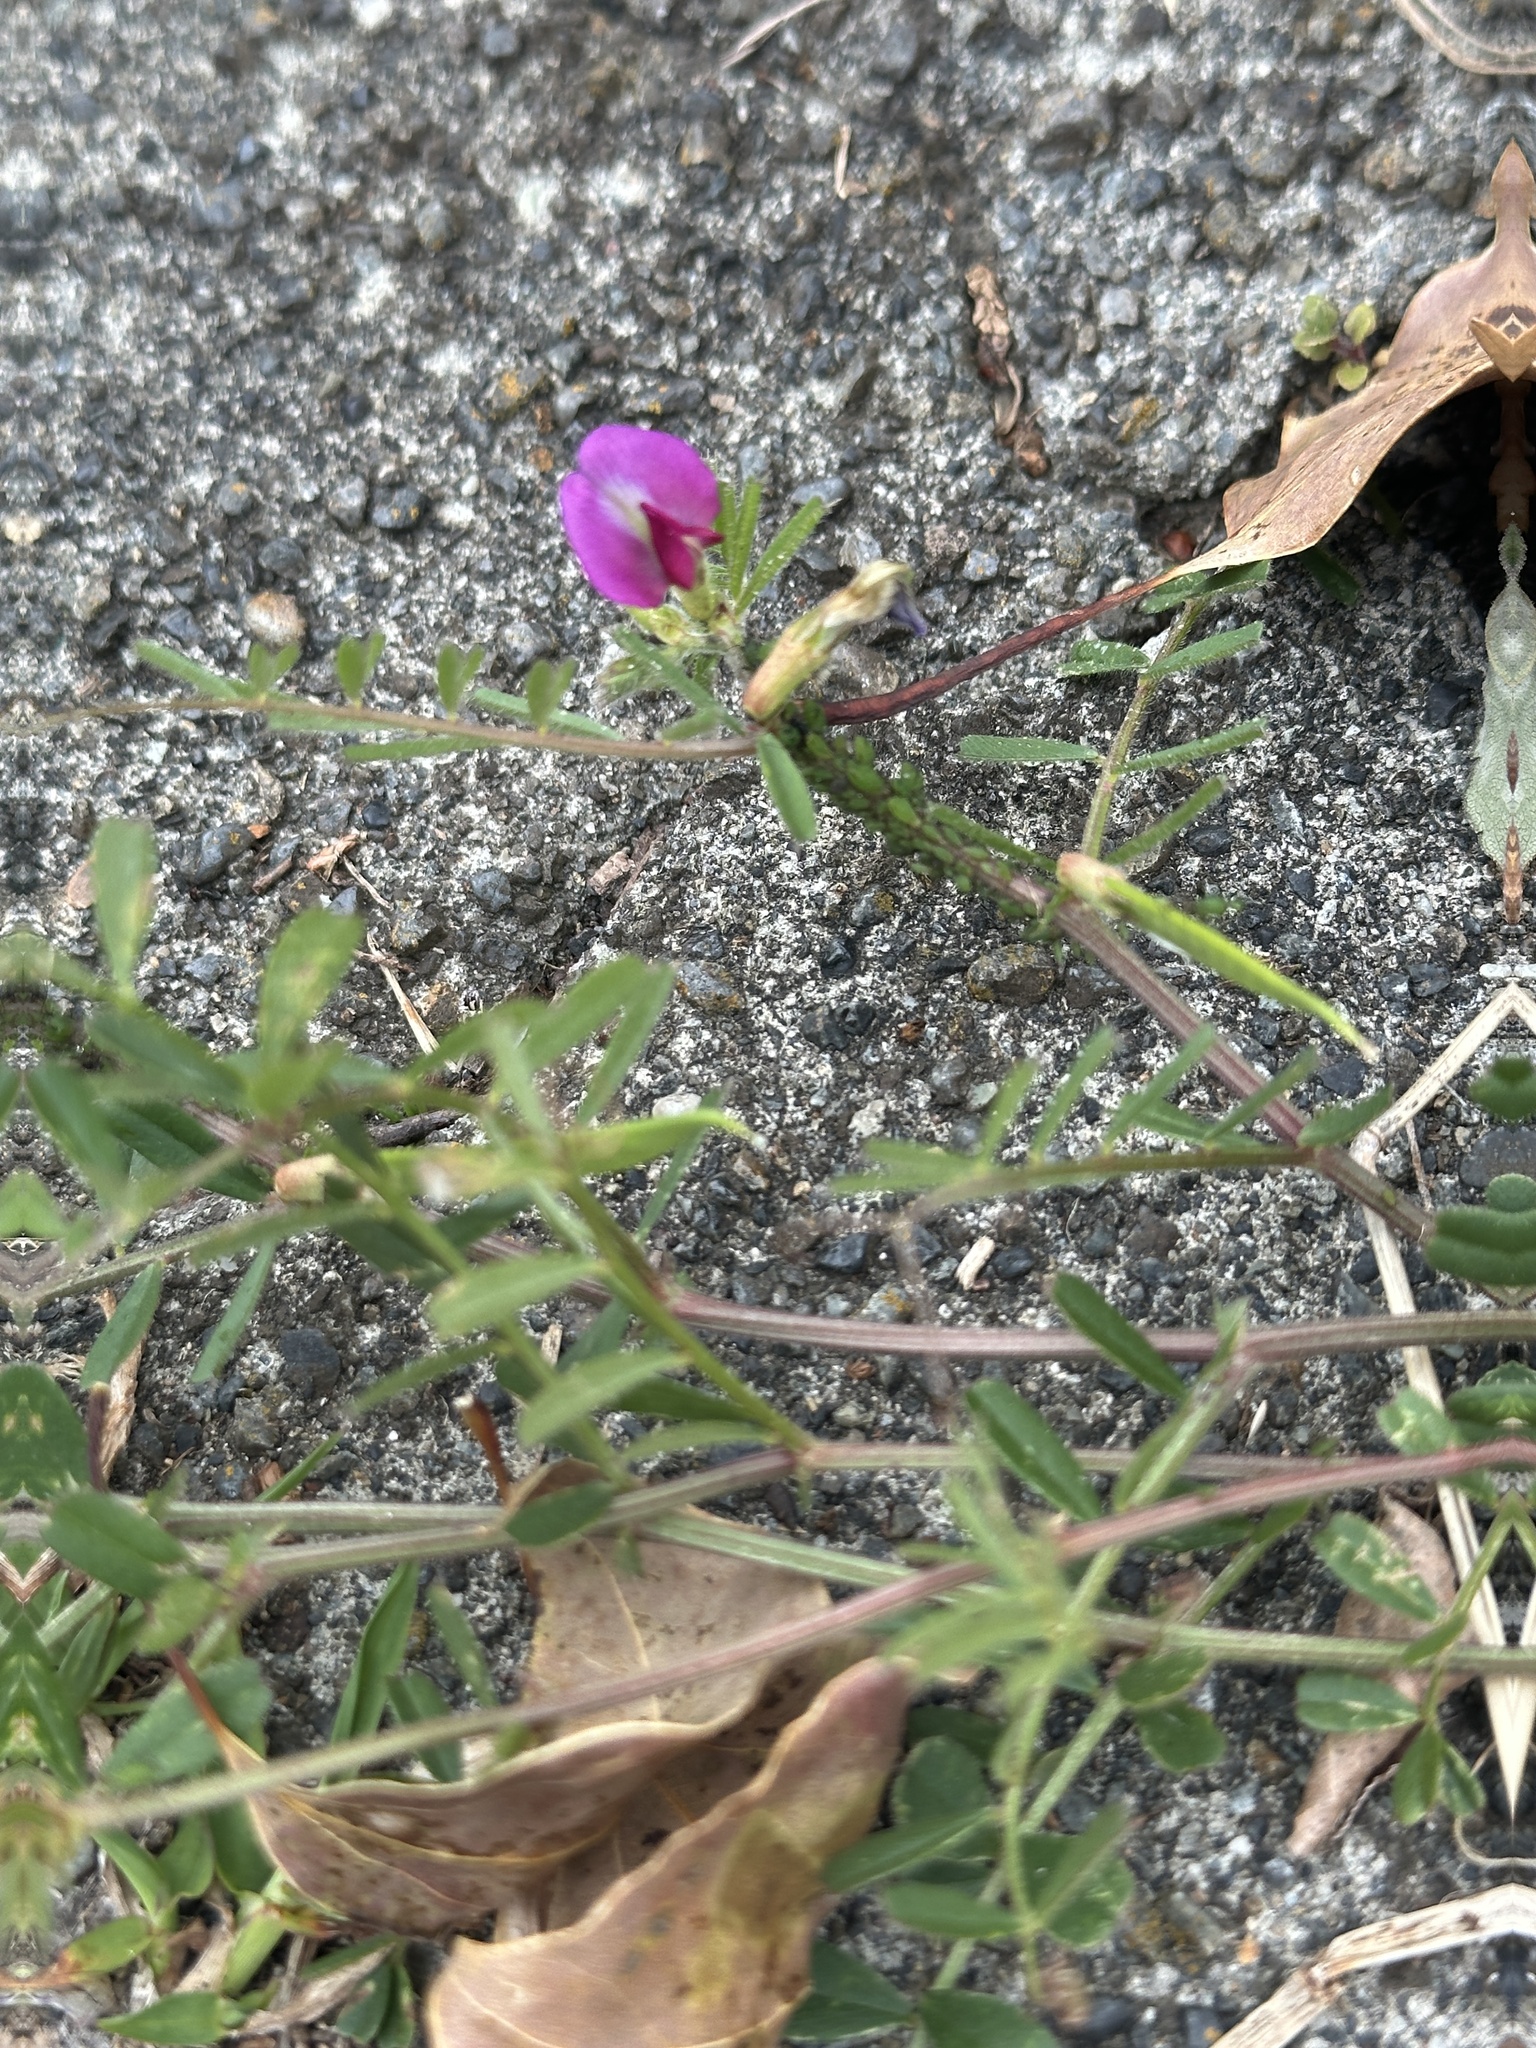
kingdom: Plantae
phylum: Tracheophyta
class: Magnoliopsida
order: Fabales
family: Fabaceae
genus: Vicia
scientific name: Vicia sativa
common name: Garden vetch
